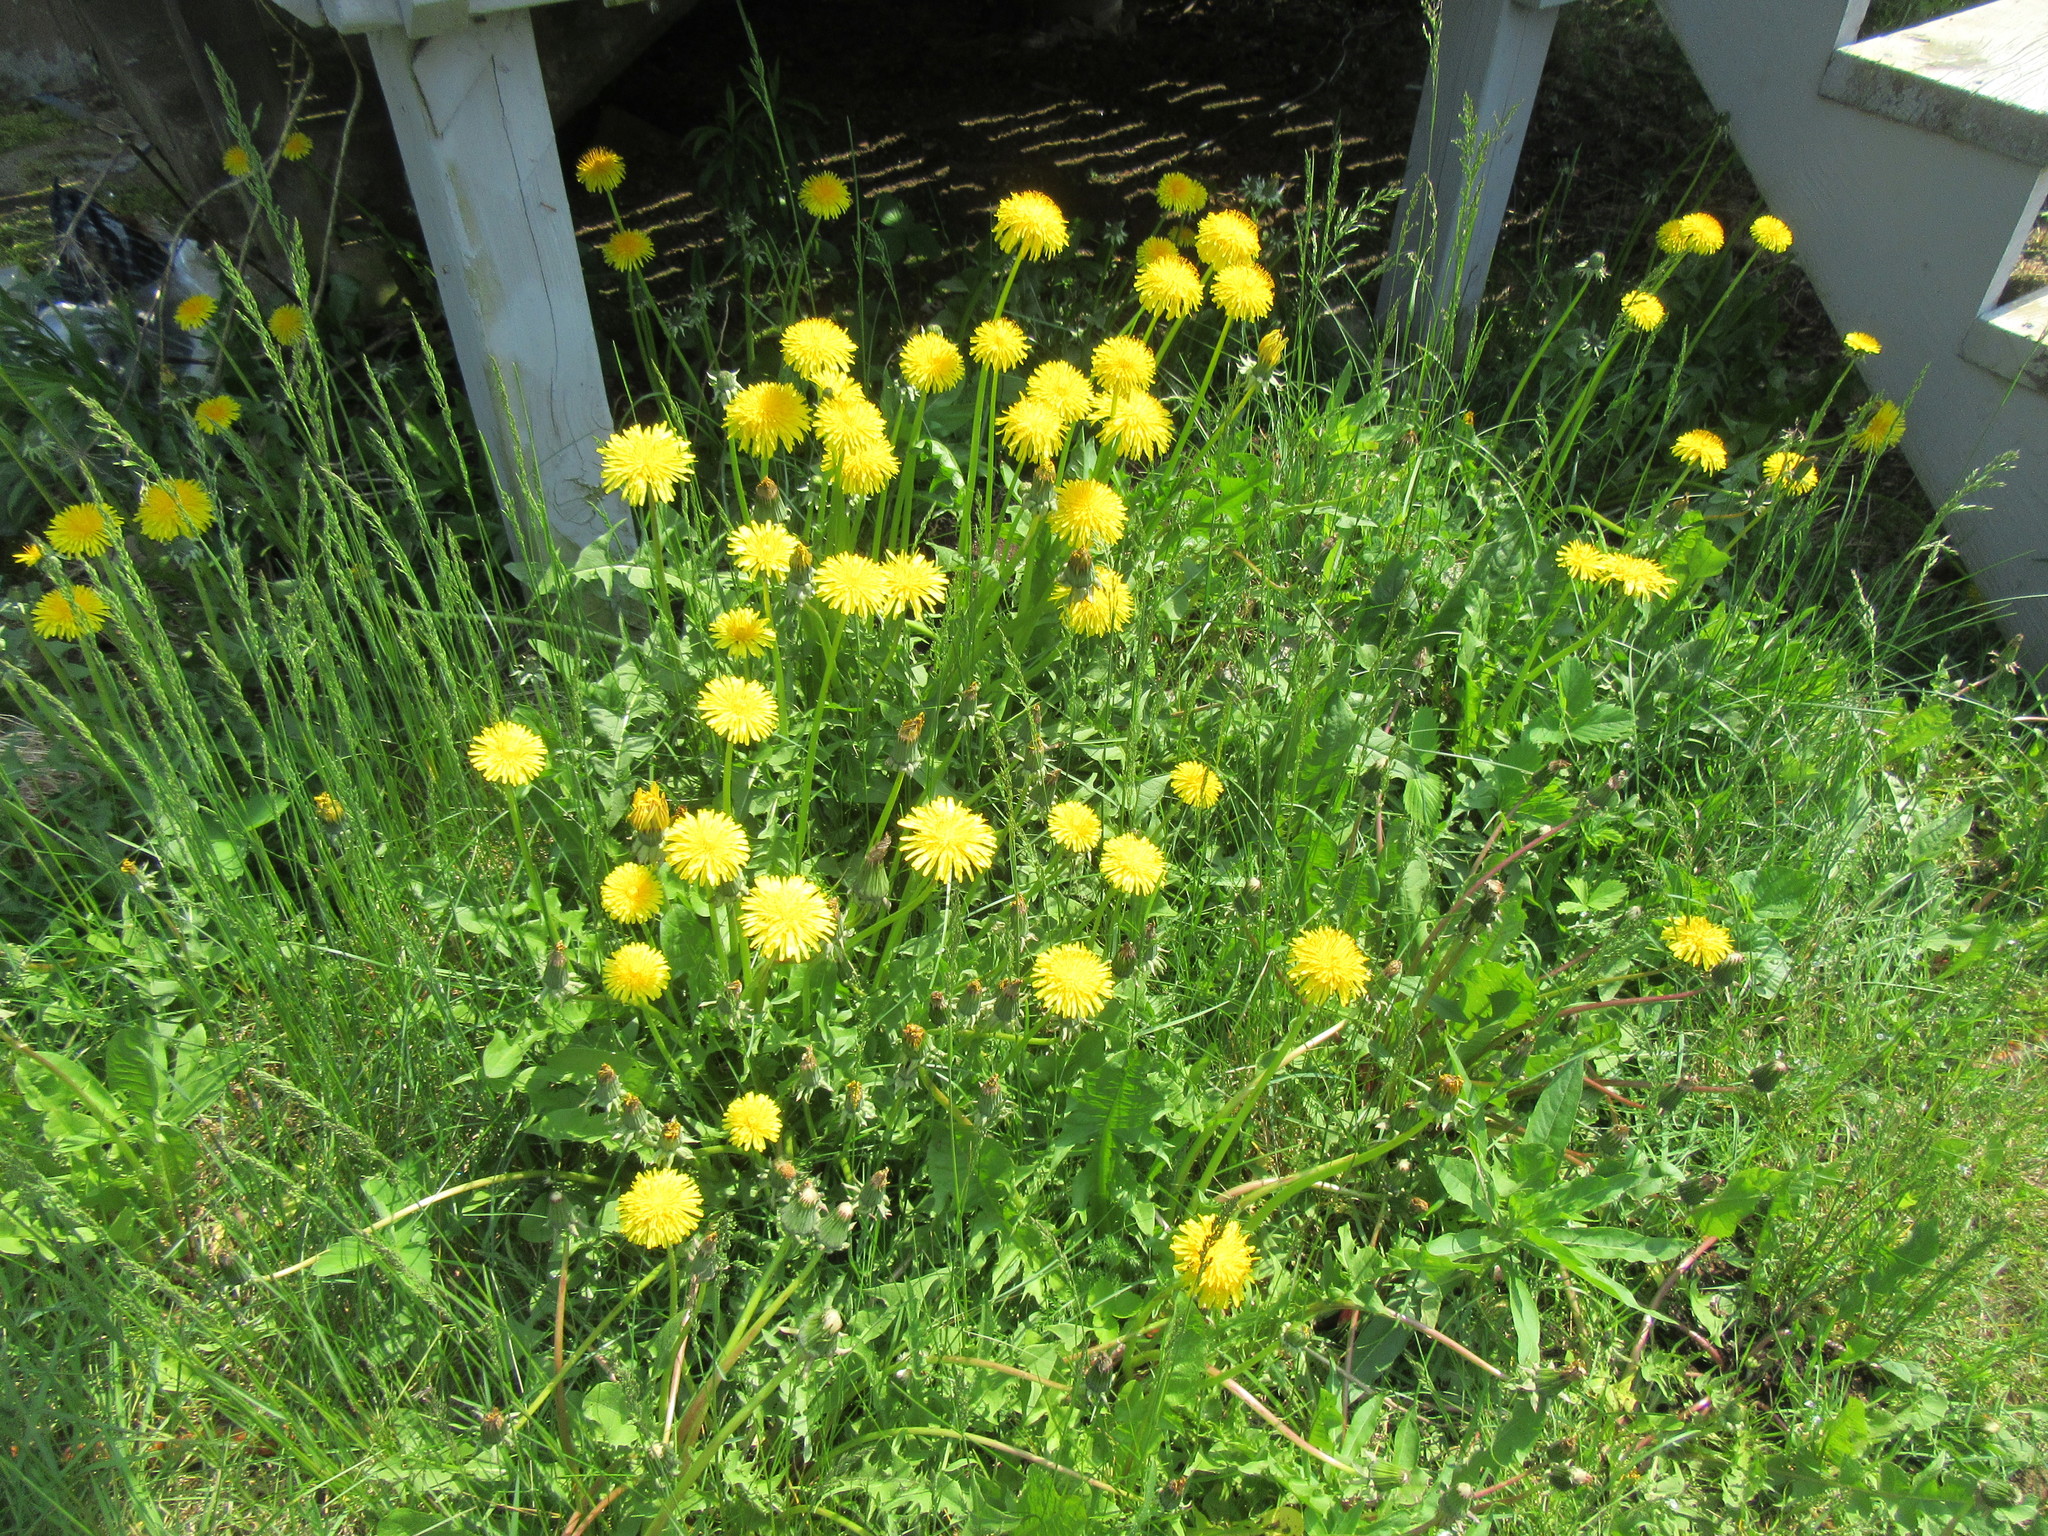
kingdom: Plantae
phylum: Tracheophyta
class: Magnoliopsida
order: Asterales
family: Asteraceae
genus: Taraxacum
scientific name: Taraxacum officinale
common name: Common dandelion
